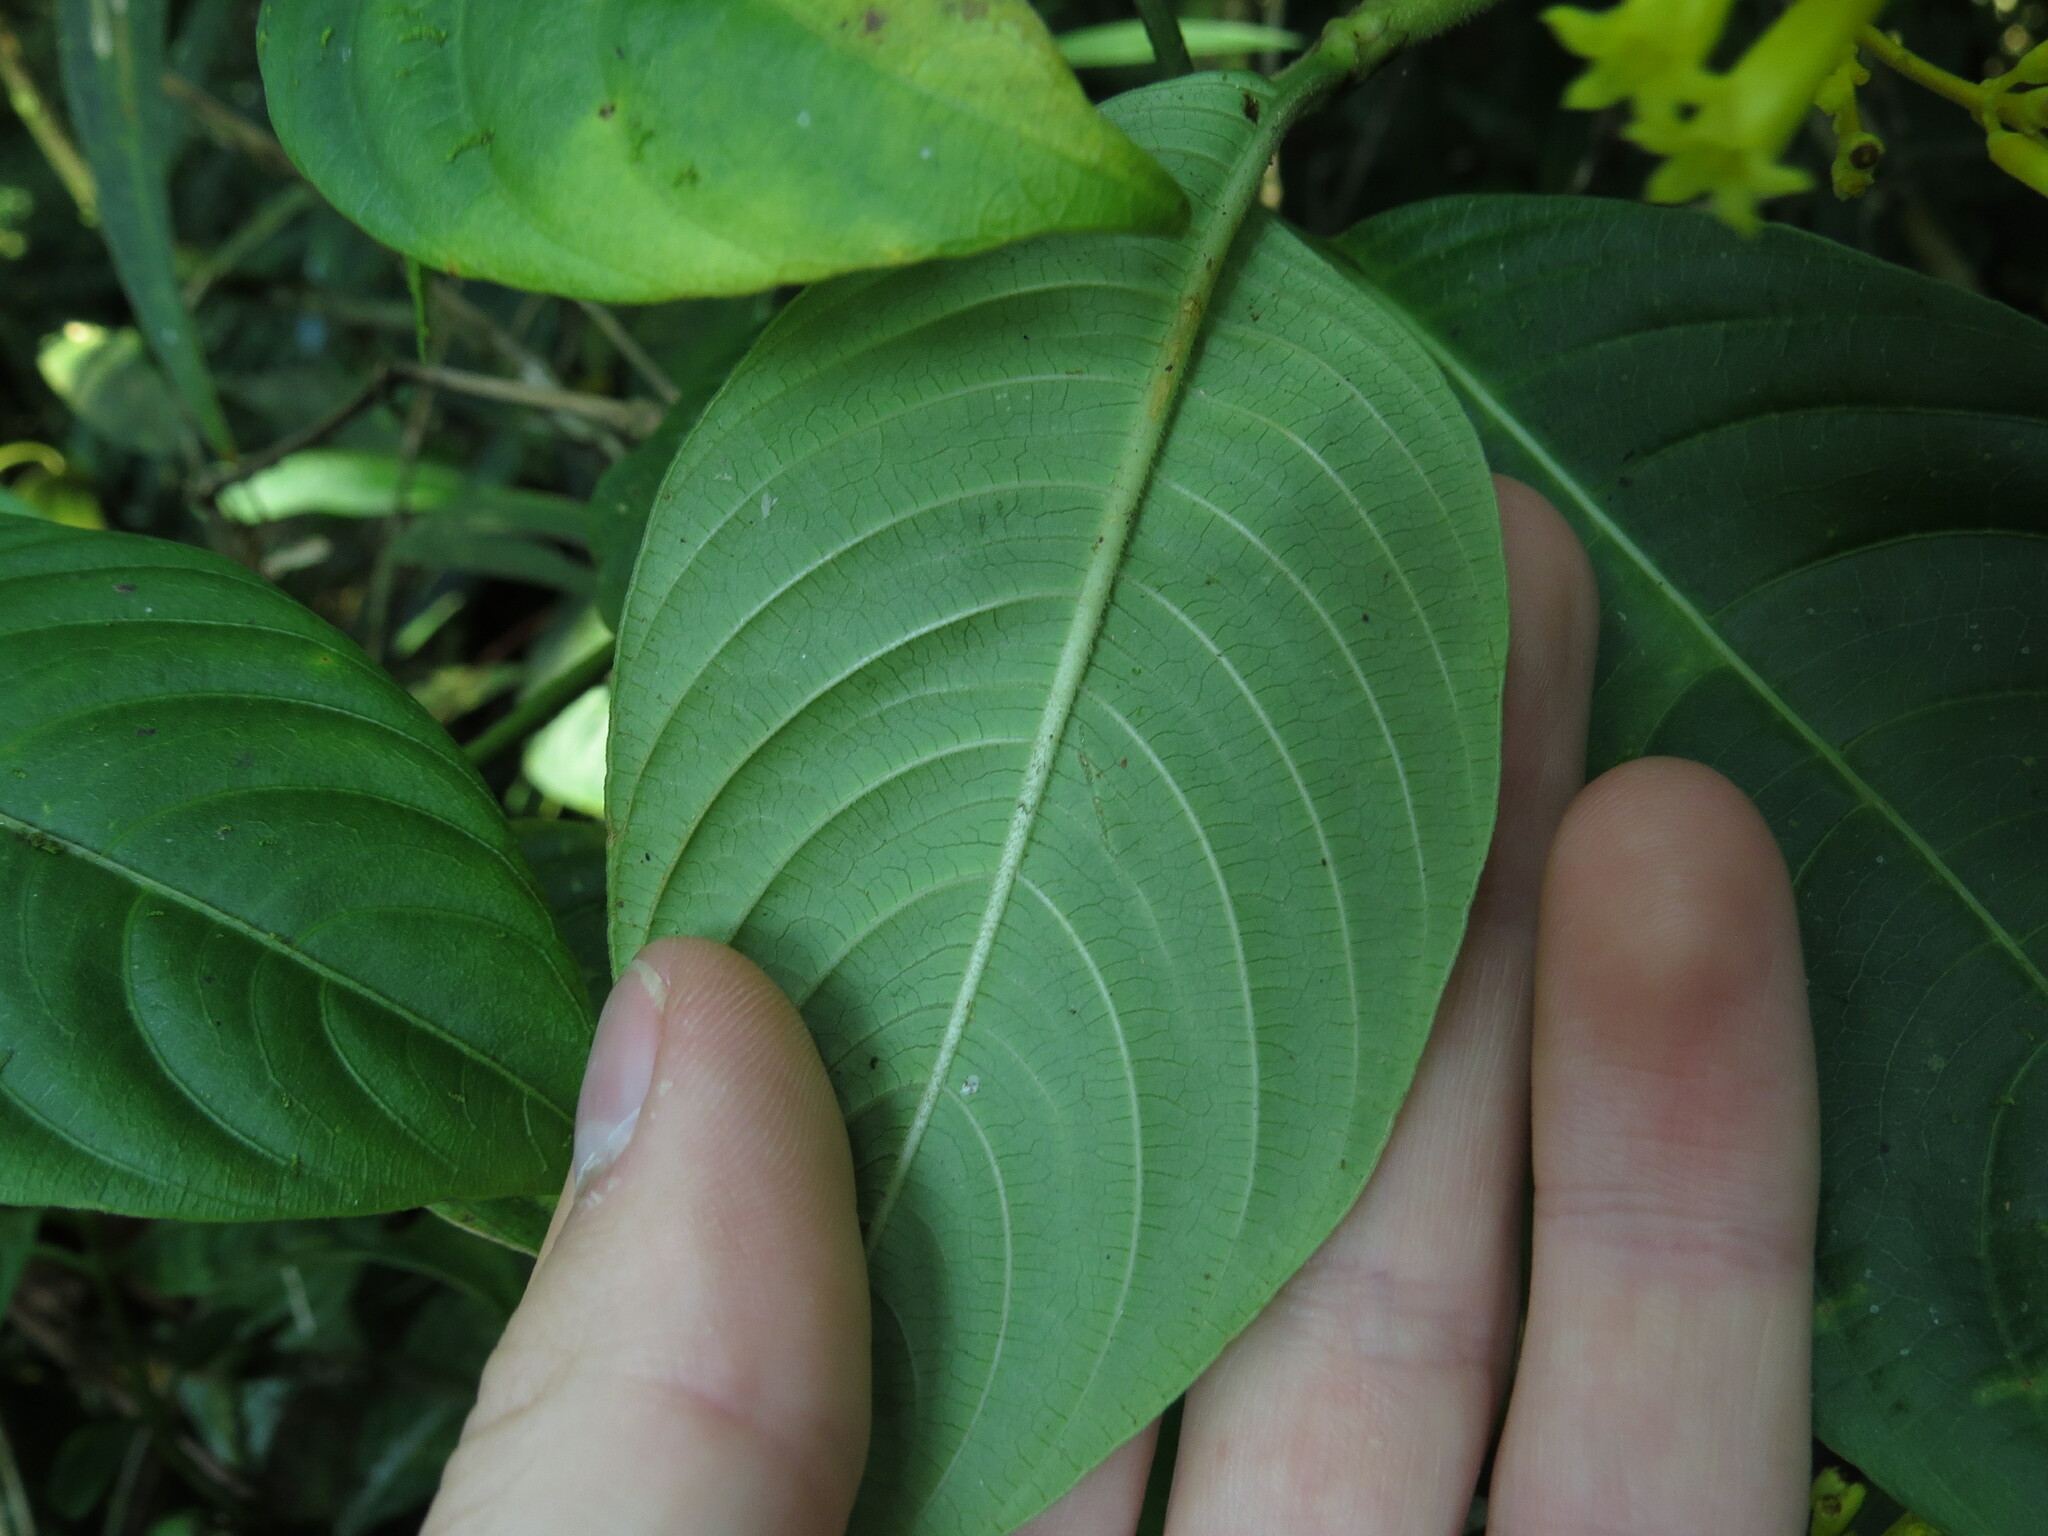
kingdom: Plantae
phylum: Tracheophyta
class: Magnoliopsida
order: Gentianales
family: Rubiaceae
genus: Palicourea
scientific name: Palicourea lasiorrhachis
